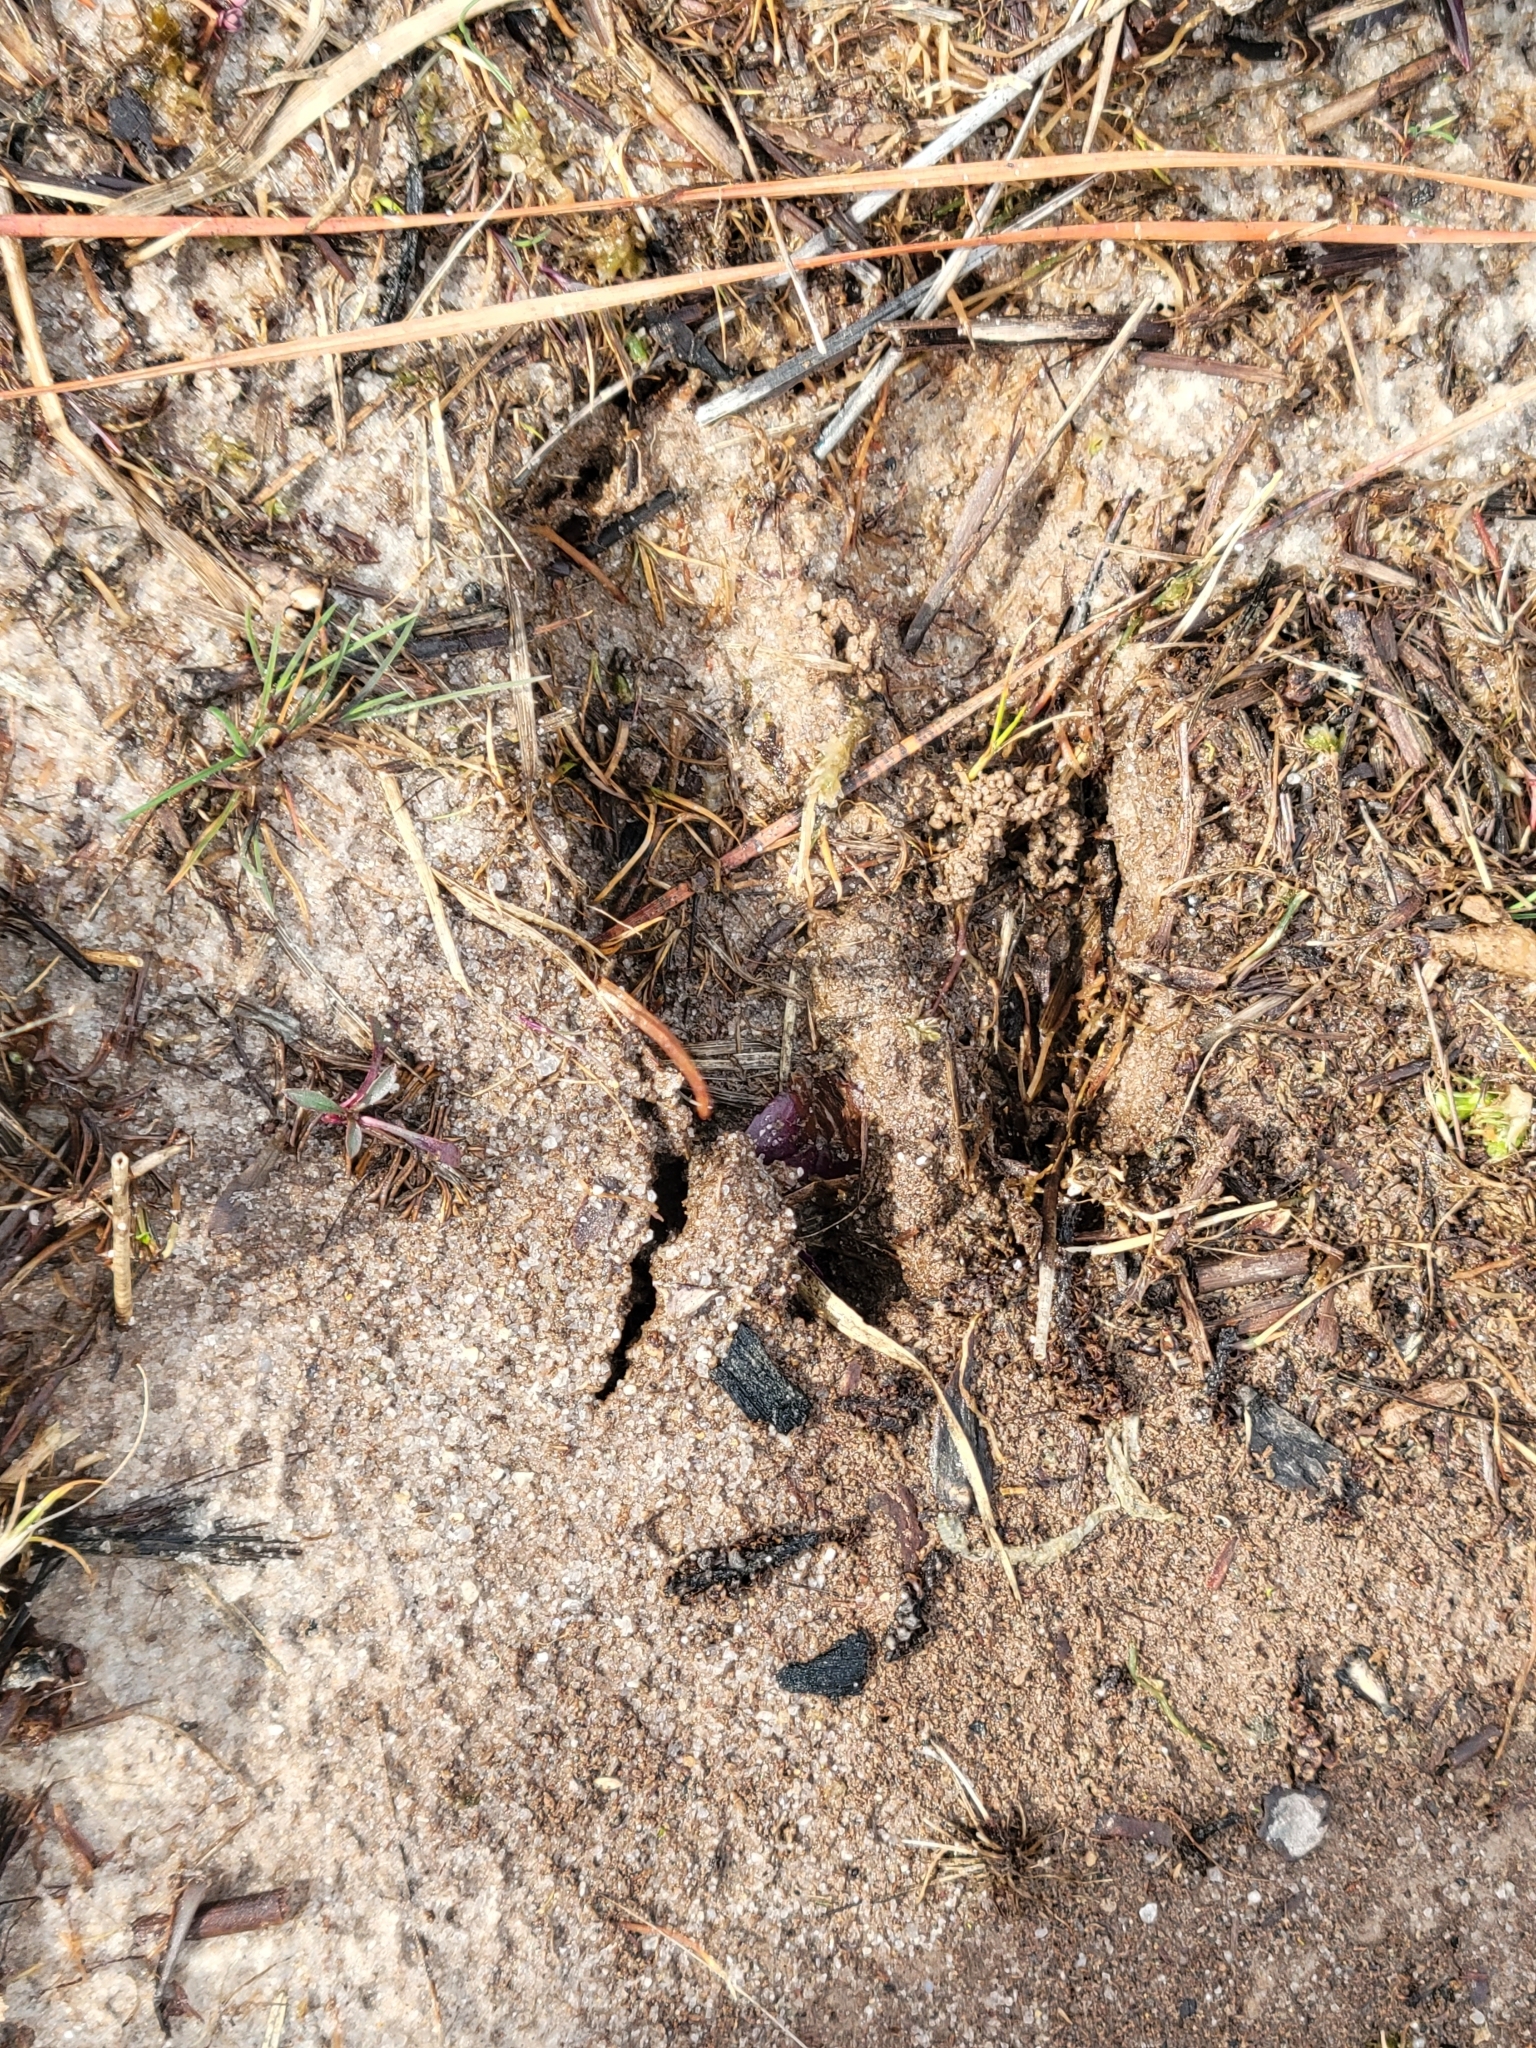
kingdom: Animalia
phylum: Chordata
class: Mammalia
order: Artiodactyla
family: Cervidae
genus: Odocoileus
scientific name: Odocoileus virginianus
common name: White-tailed deer
